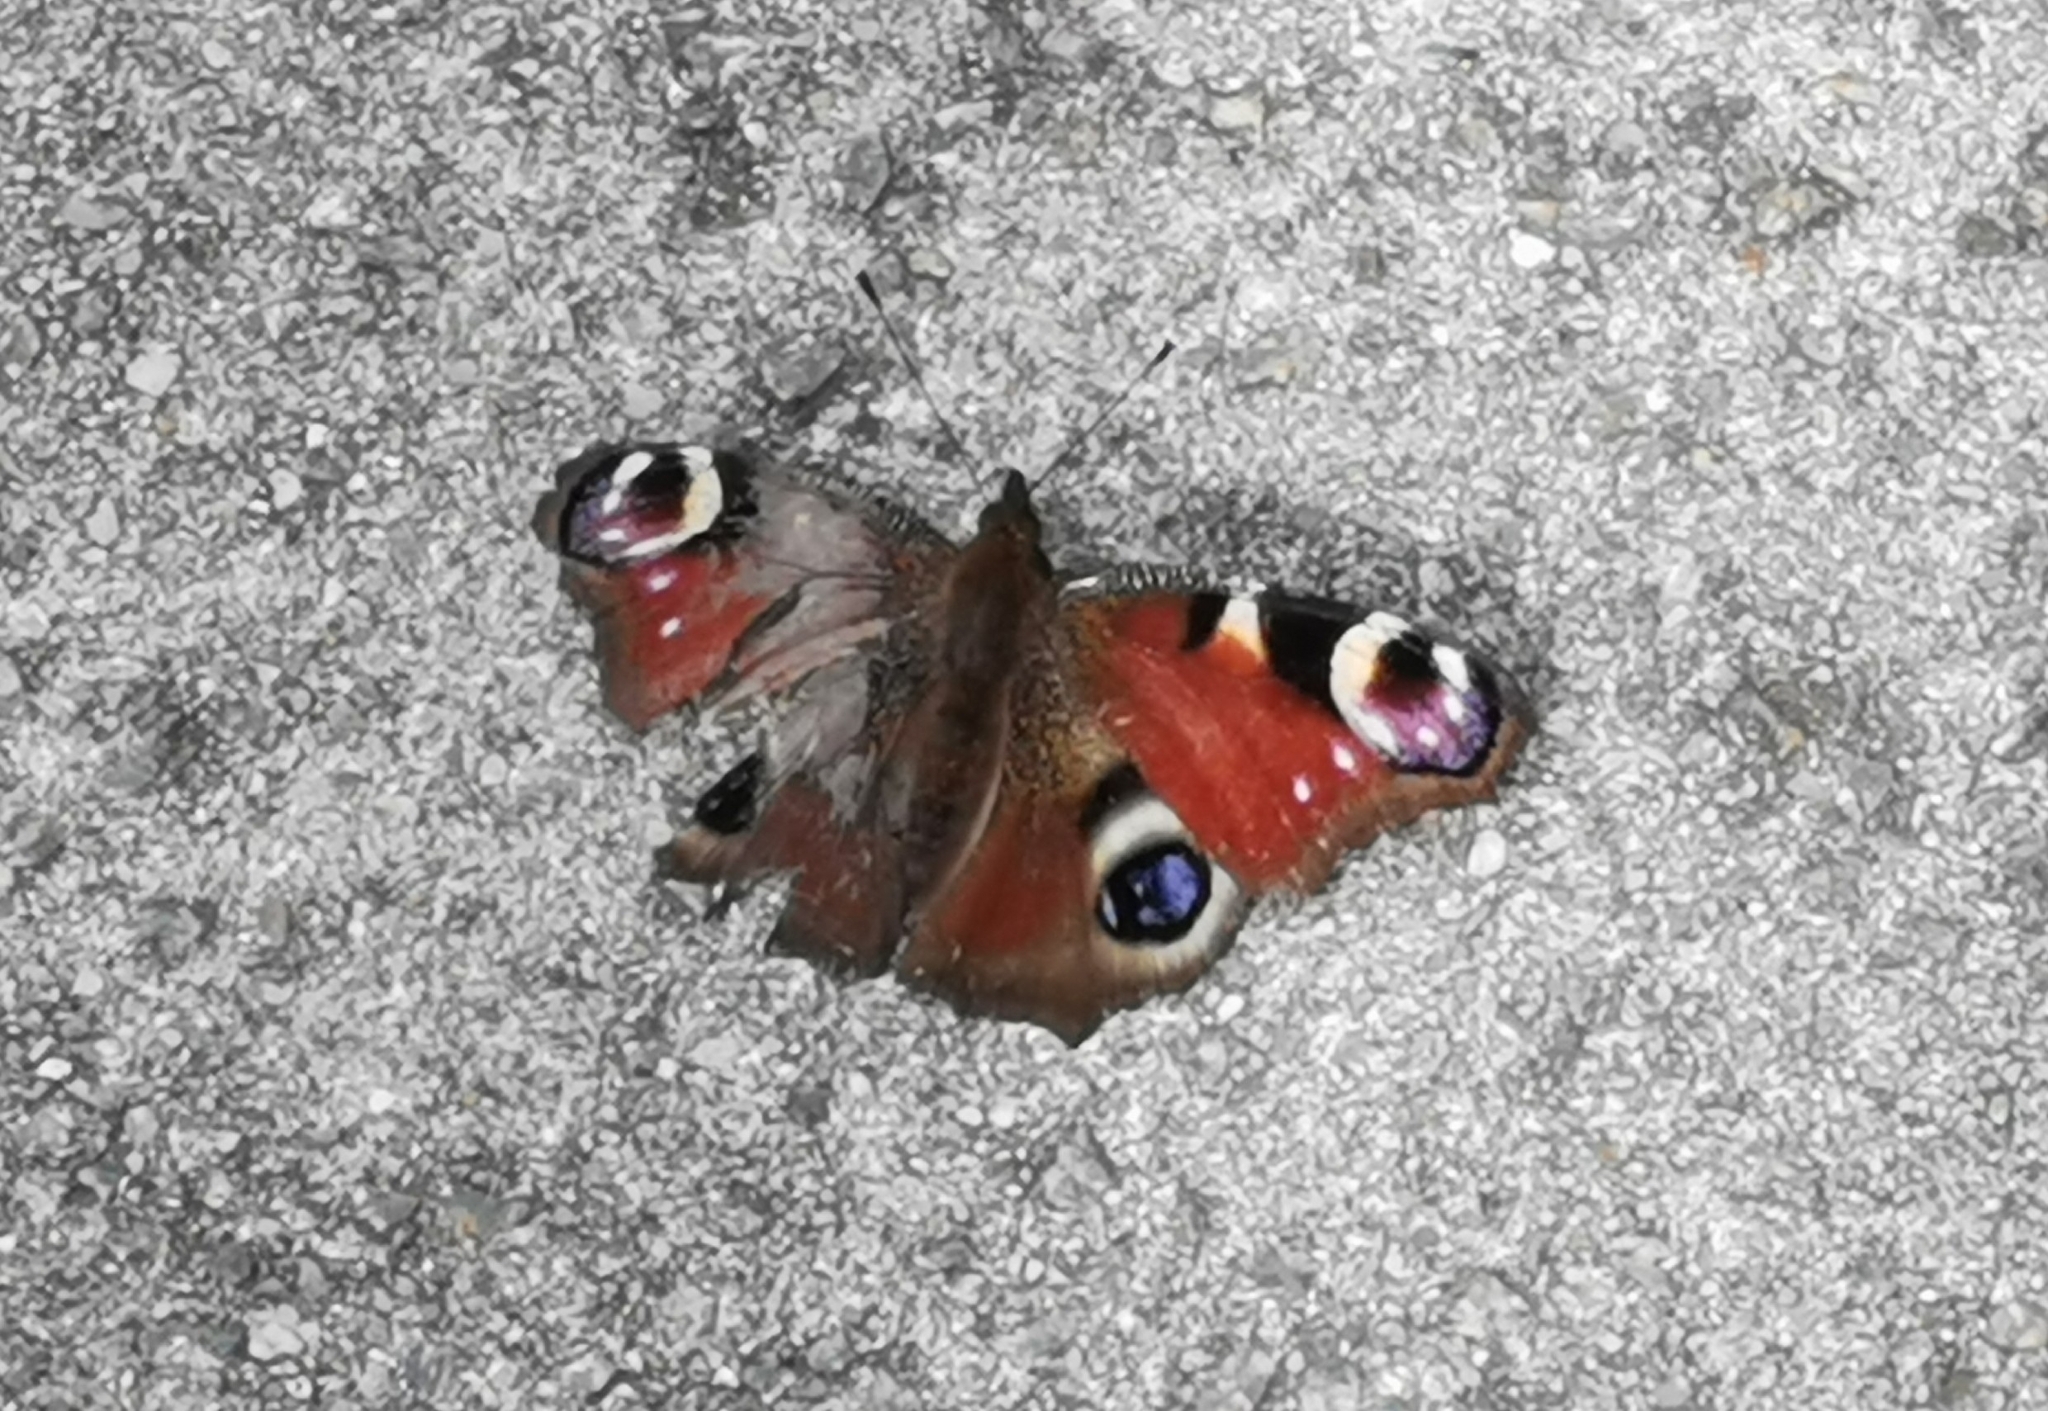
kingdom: Animalia
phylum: Arthropoda
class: Insecta
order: Lepidoptera
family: Nymphalidae
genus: Aglais
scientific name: Aglais io
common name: Peacock
